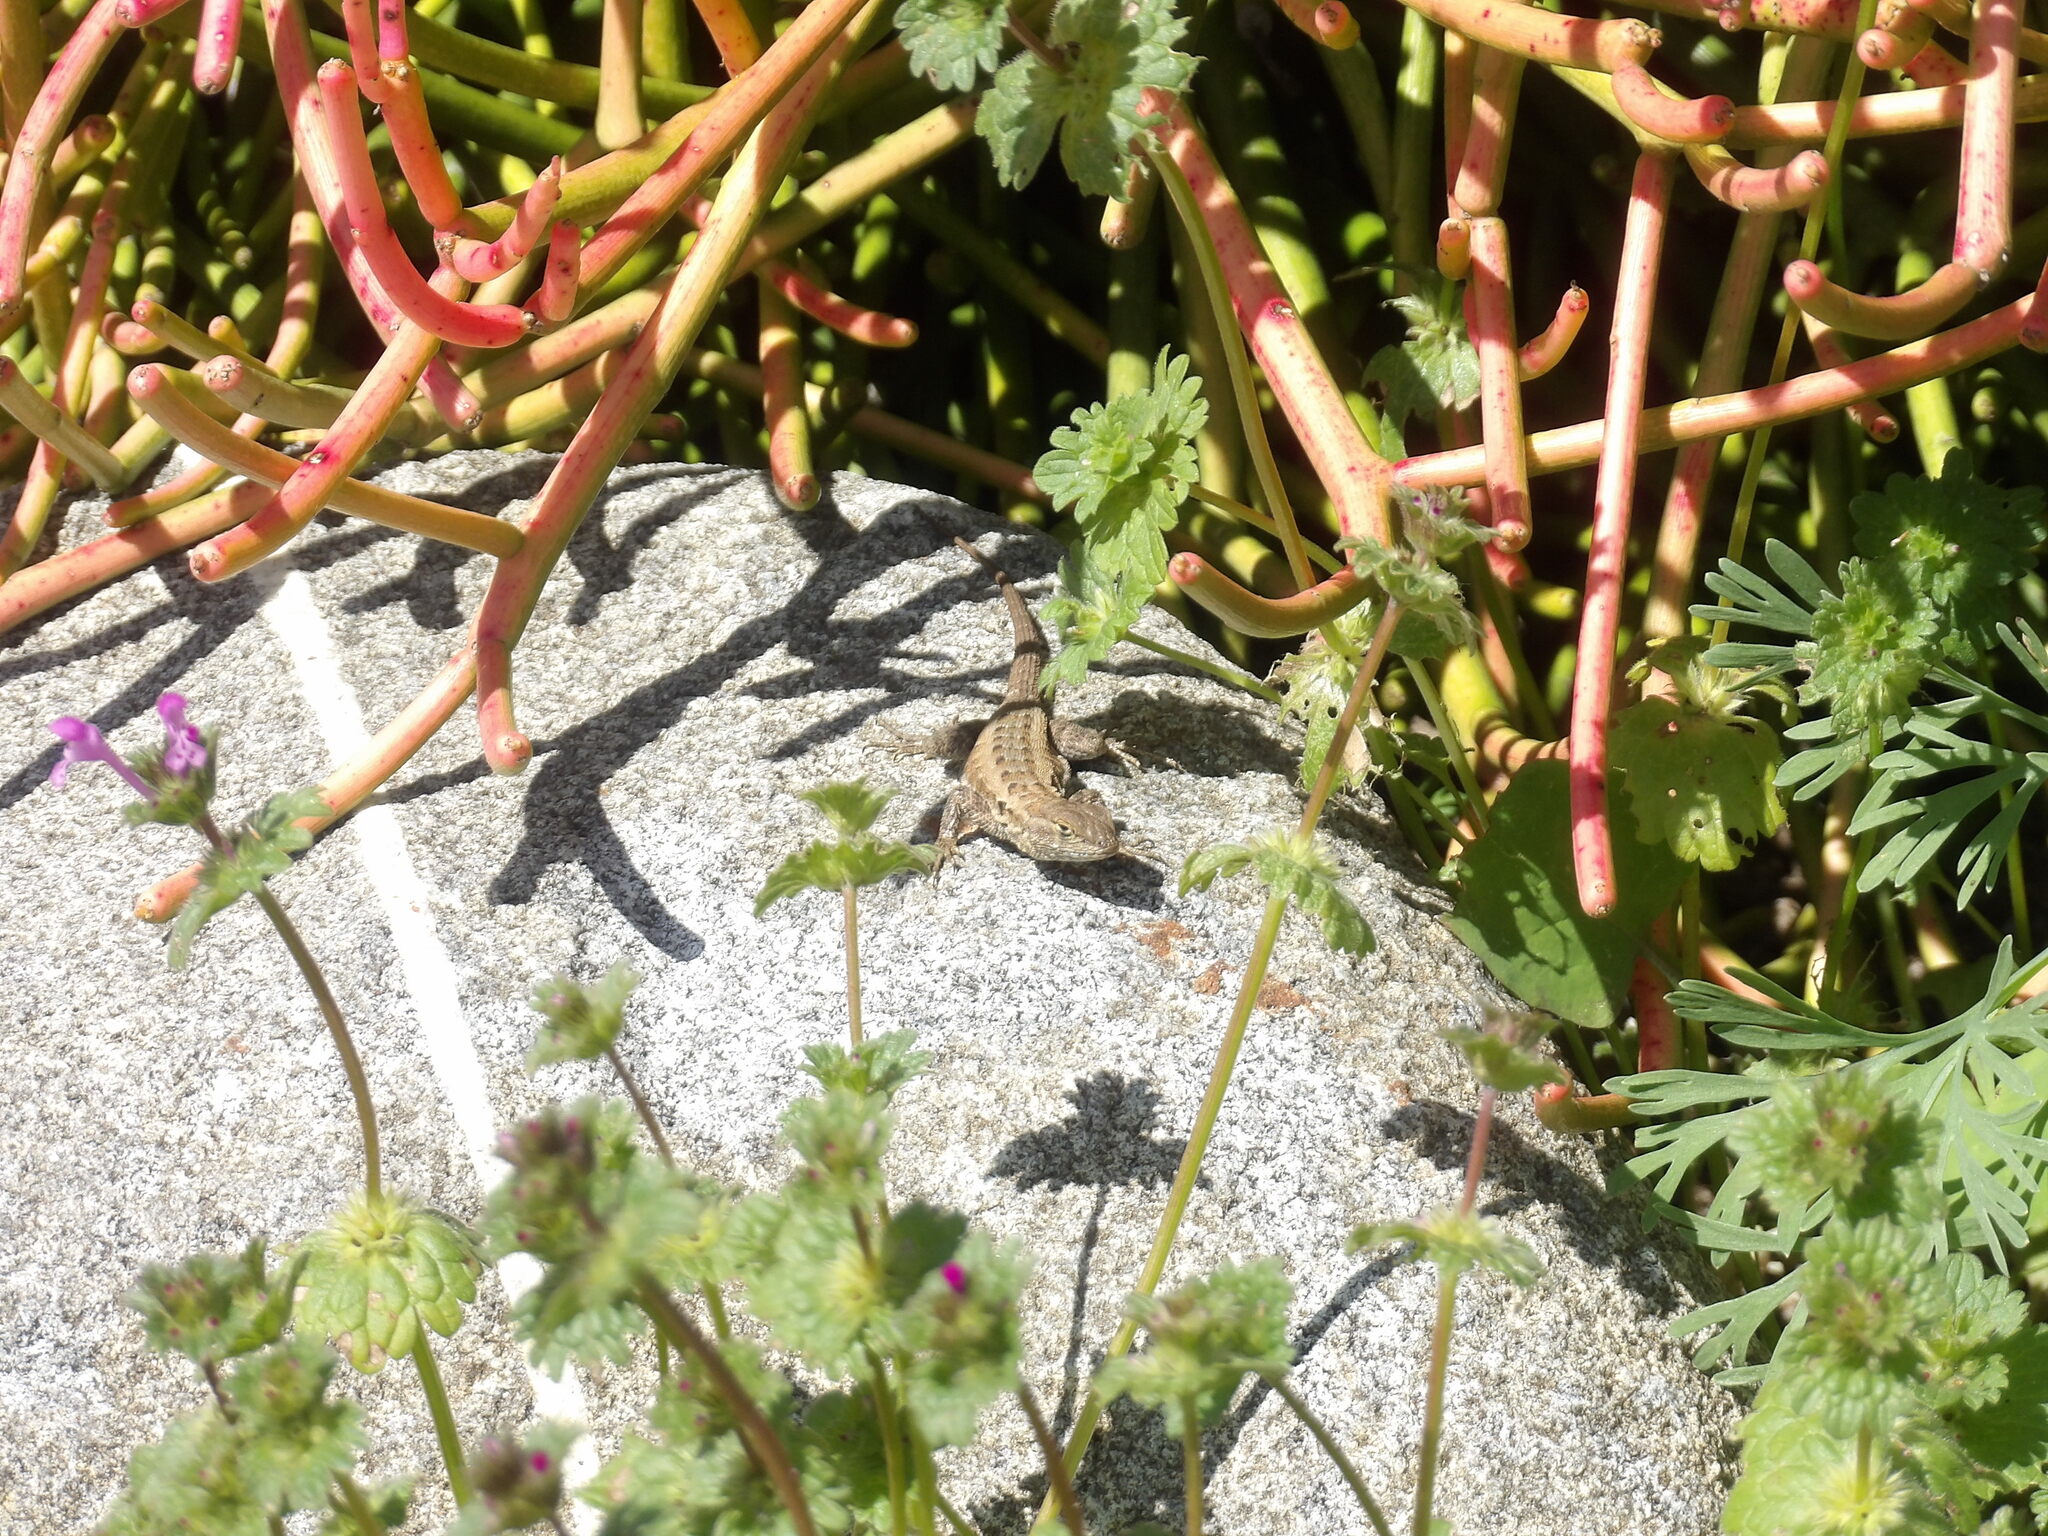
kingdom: Plantae
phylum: Tracheophyta
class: Magnoliopsida
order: Lamiales
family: Lamiaceae
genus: Lamium
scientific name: Lamium amplexicaule
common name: Henbit dead-nettle
